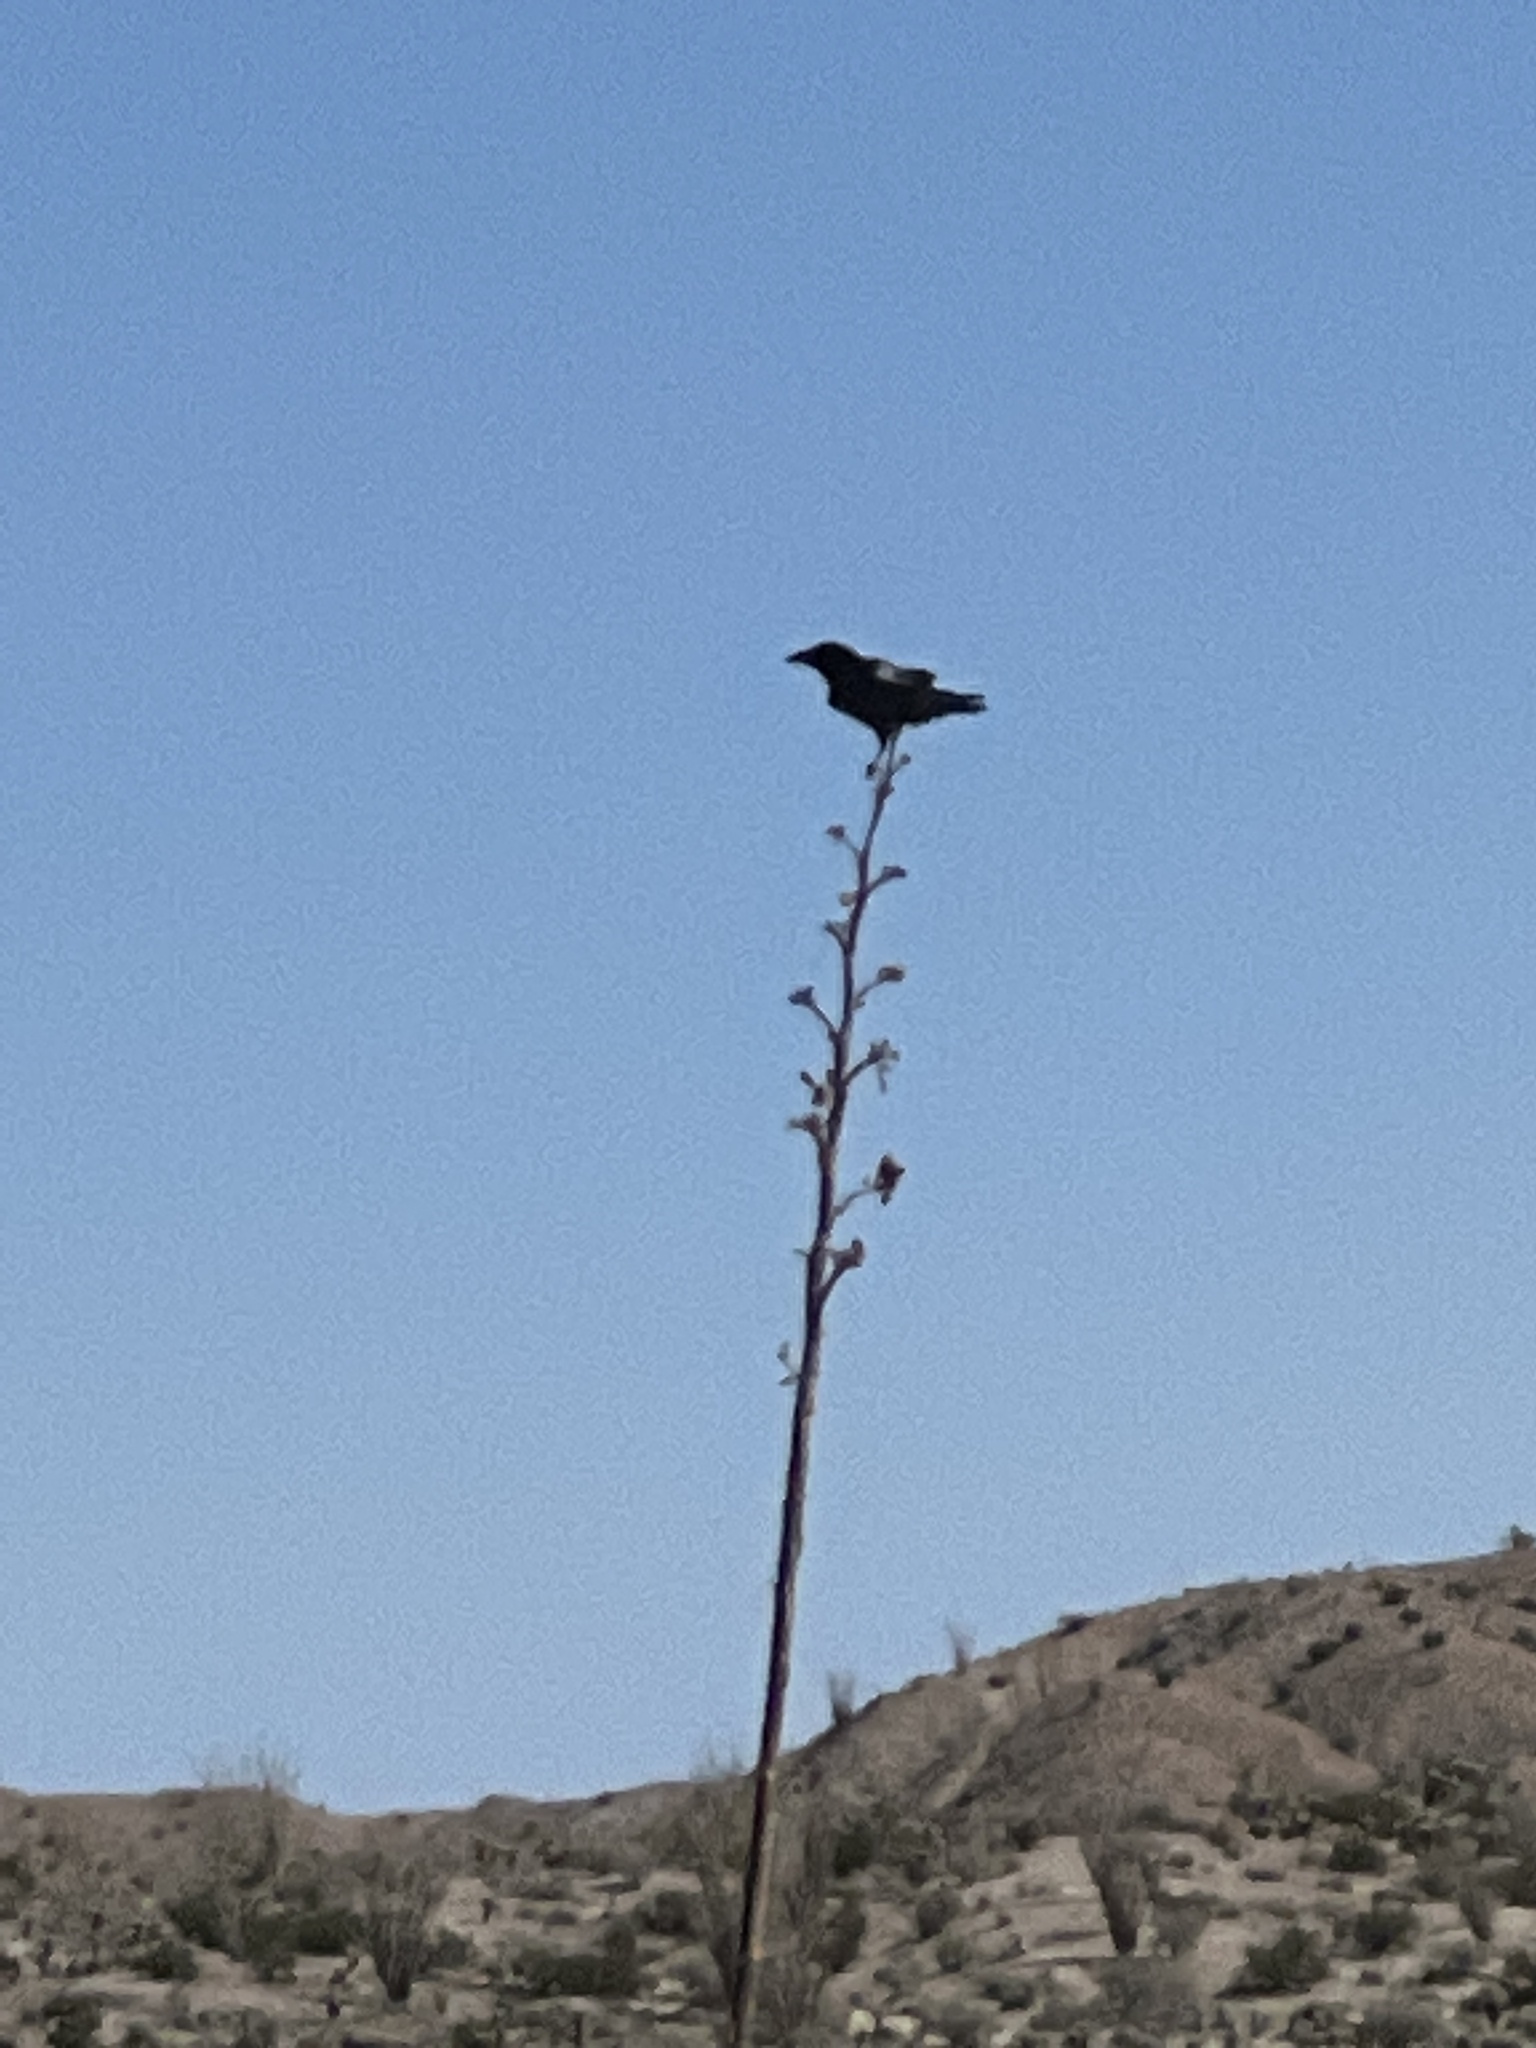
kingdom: Animalia
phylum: Chordata
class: Aves
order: Passeriformes
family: Corvidae
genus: Corvus
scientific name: Corvus corax
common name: Common raven
